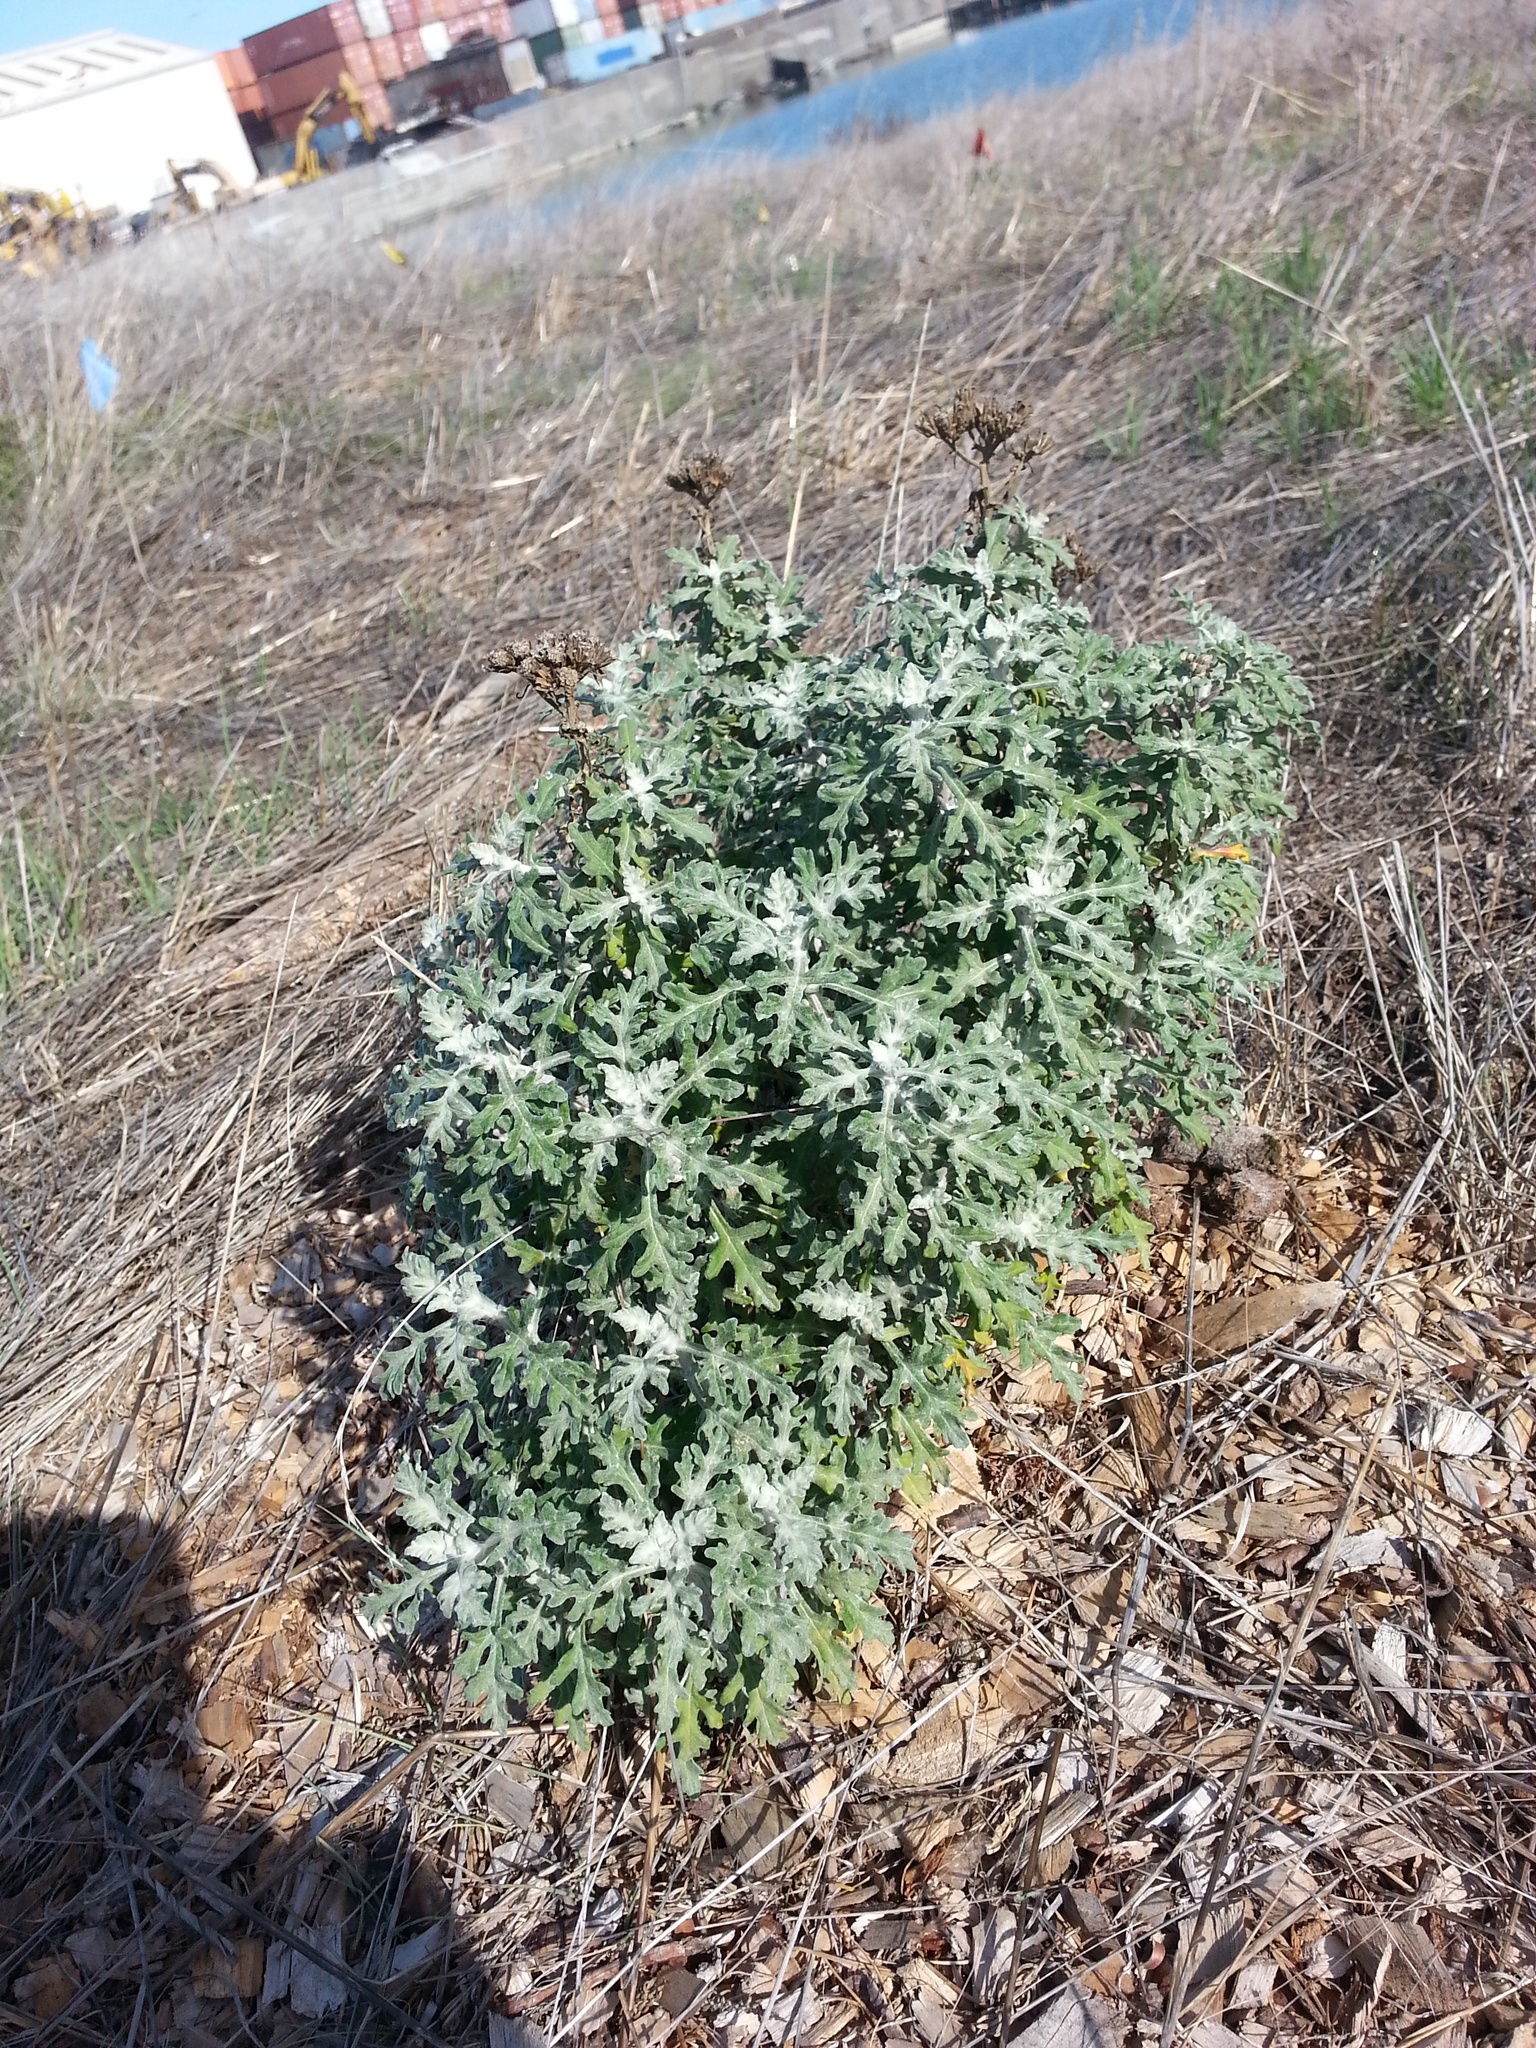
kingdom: Plantae
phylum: Tracheophyta
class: Magnoliopsida
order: Asterales
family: Asteraceae
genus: Eriophyllum
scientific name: Eriophyllum staechadifolium
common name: Lizardtail
